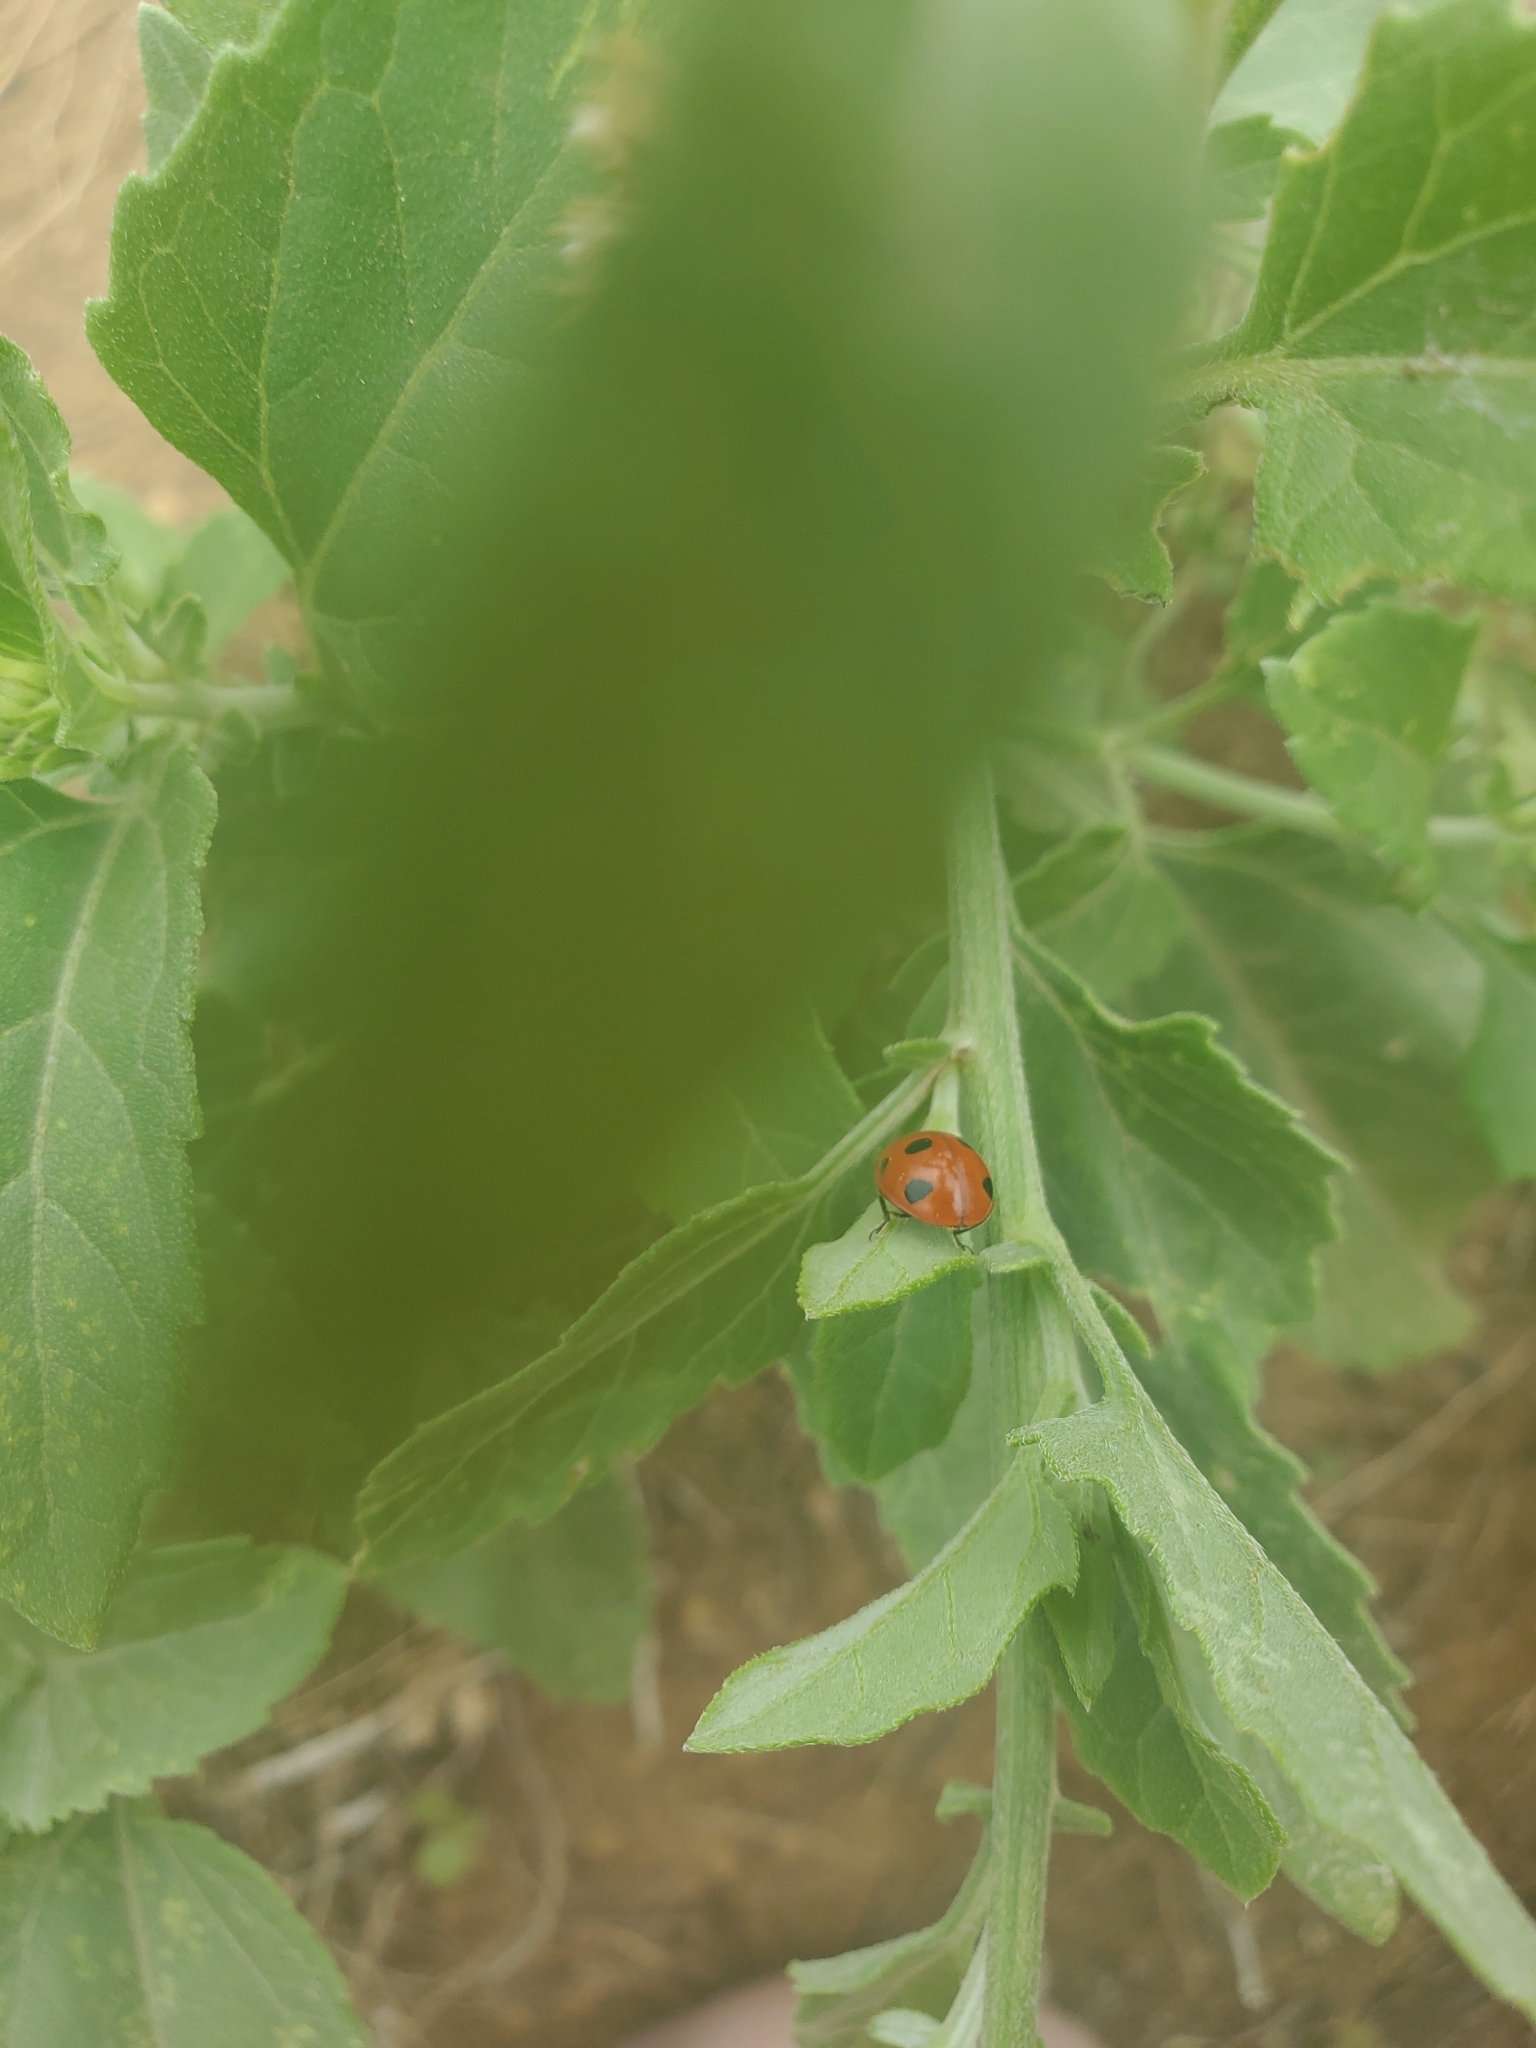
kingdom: Animalia
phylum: Arthropoda
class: Insecta
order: Coleoptera
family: Coccinellidae
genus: Coccinella
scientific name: Coccinella septempunctata
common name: Sevenspotted lady beetle
